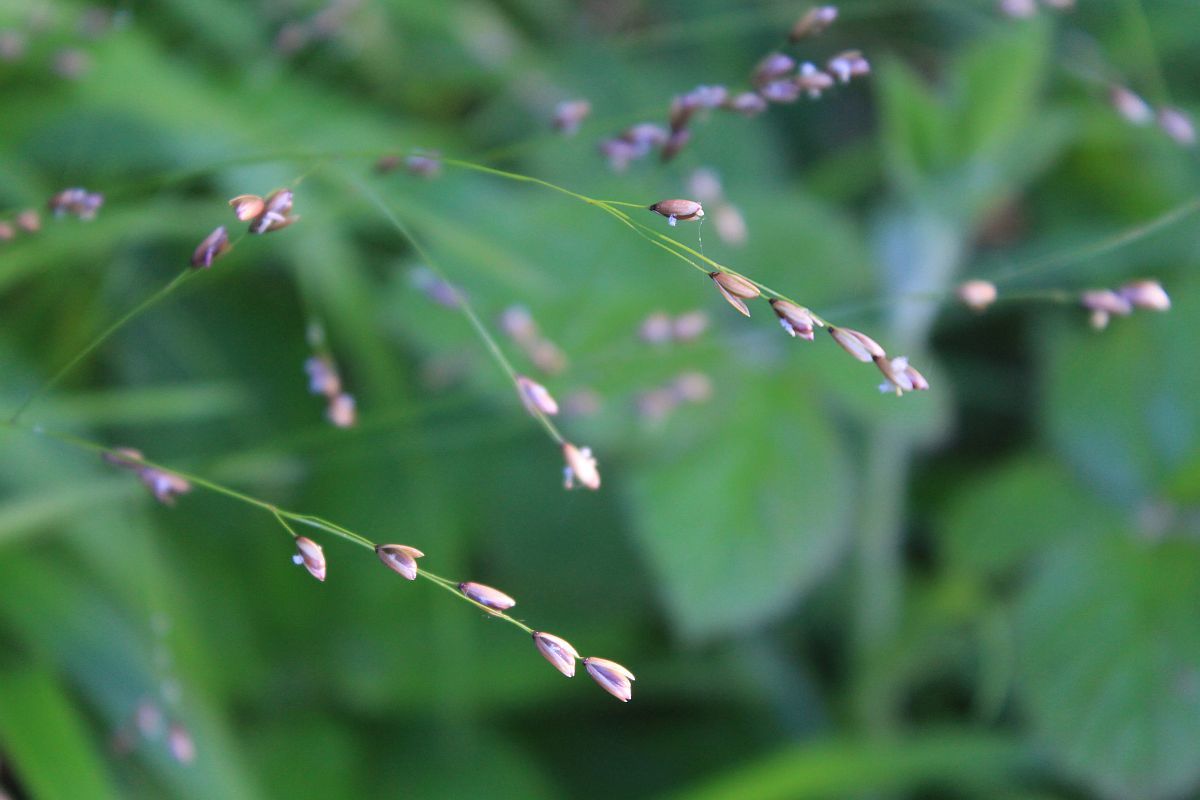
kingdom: Plantae
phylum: Tracheophyta
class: Liliopsida
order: Poales
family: Poaceae
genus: Melica
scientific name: Melica uniflora
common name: Wood melick
